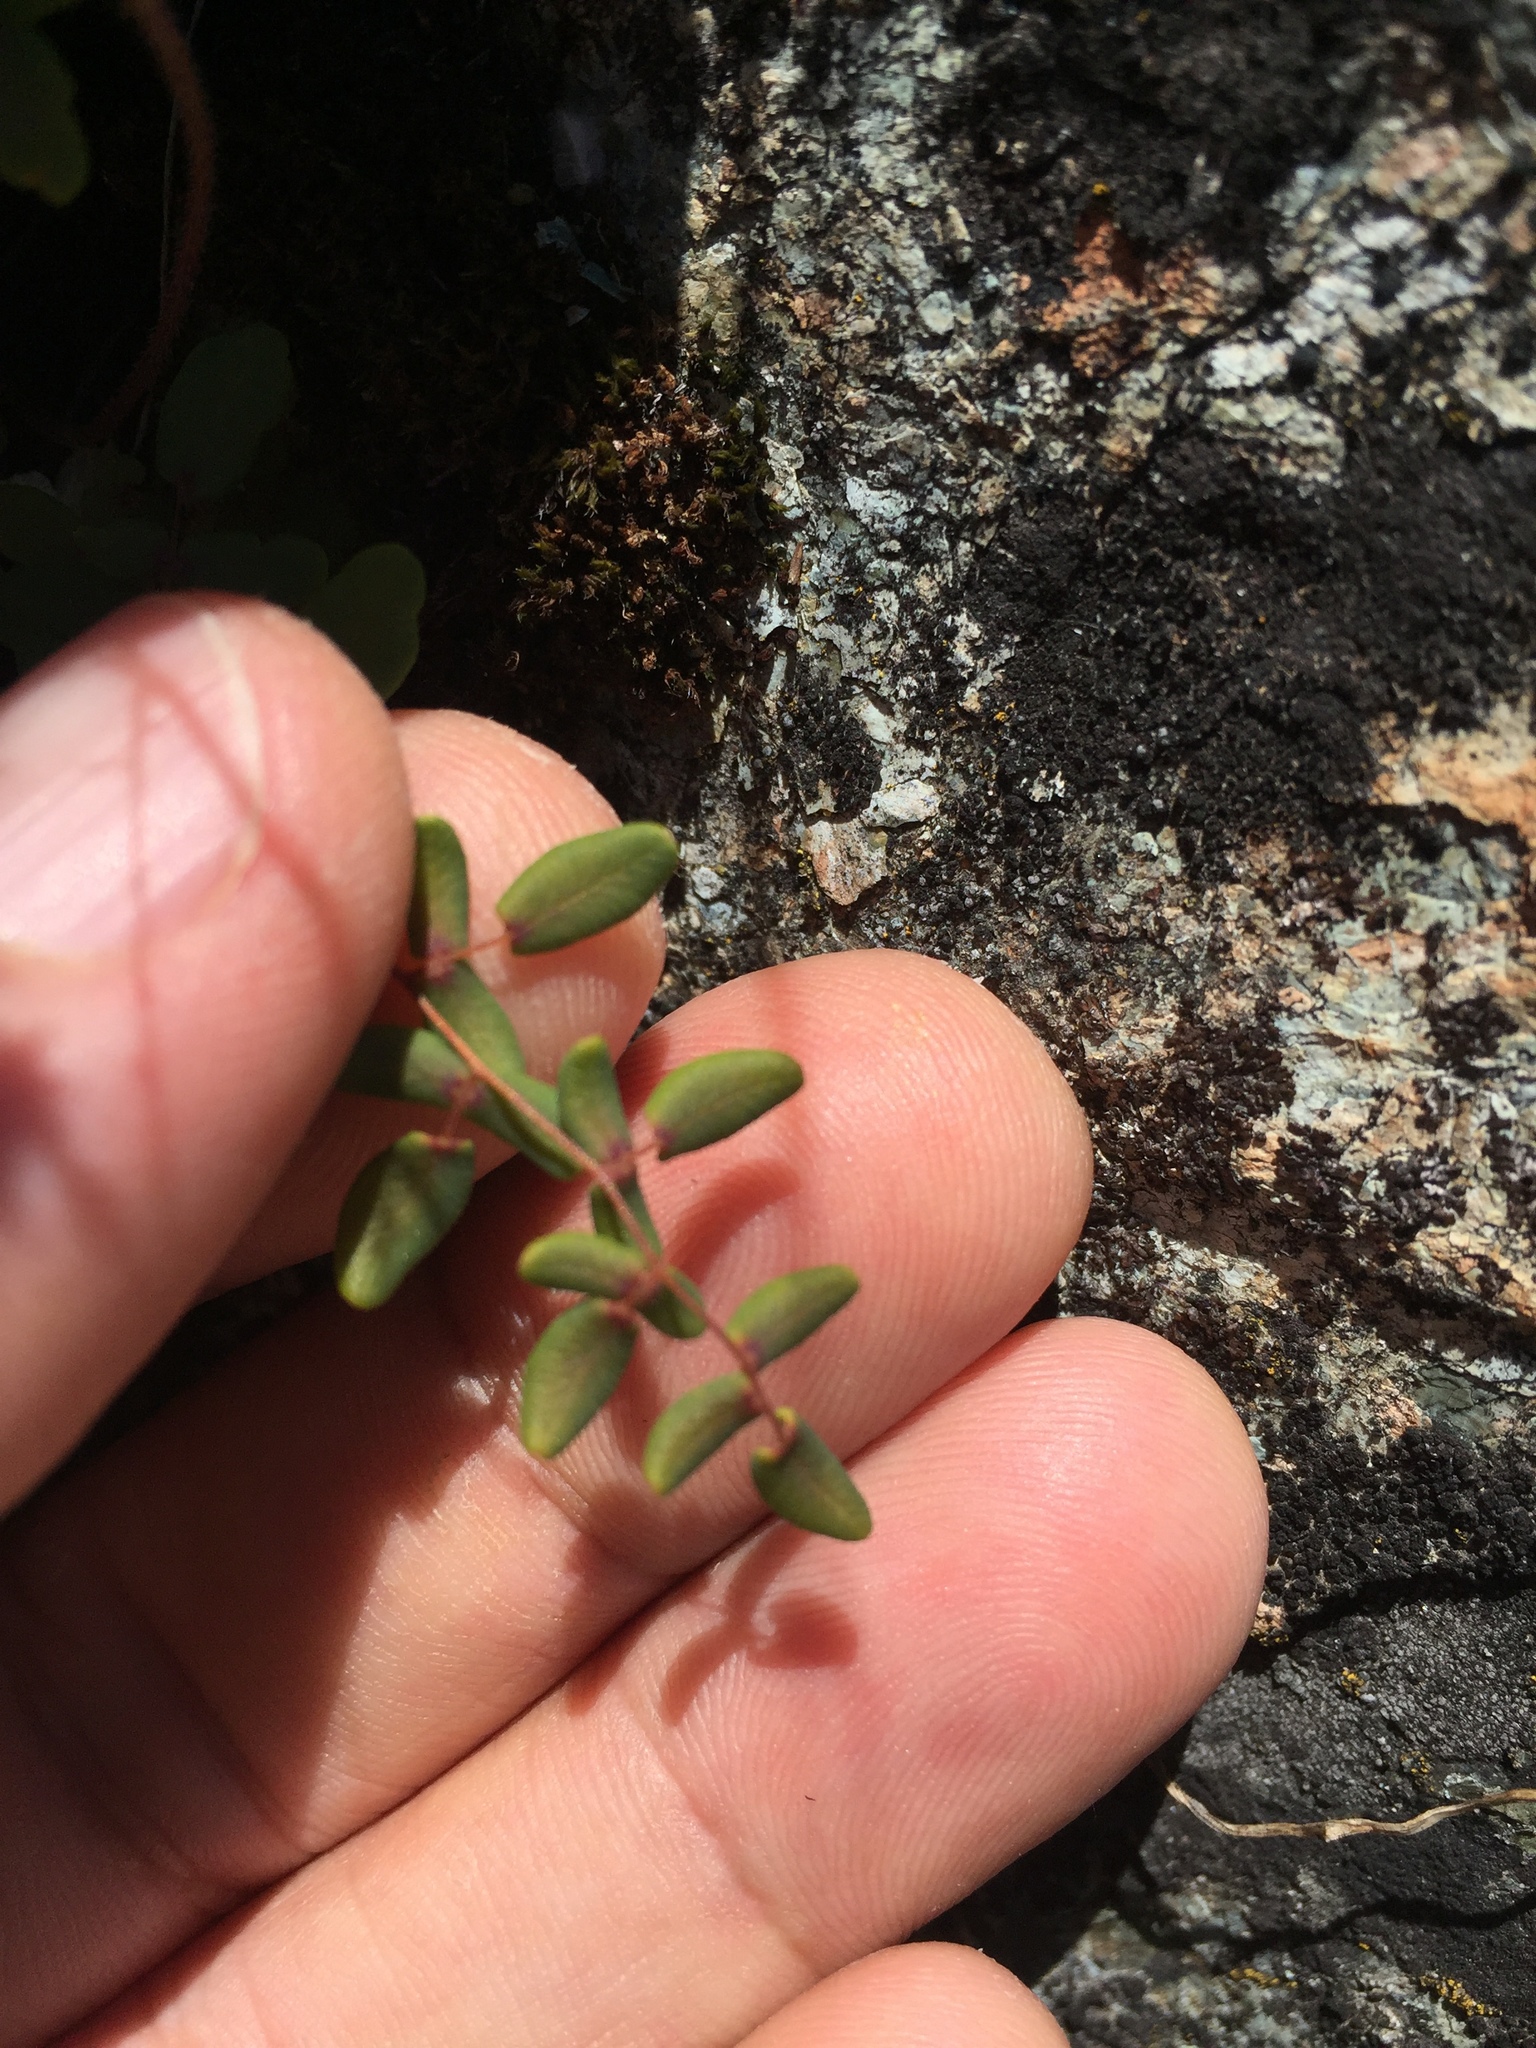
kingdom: Plantae
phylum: Tracheophyta
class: Polypodiopsida
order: Polypodiales
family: Pteridaceae
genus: Pellaea
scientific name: Pellaea andromedifolia
